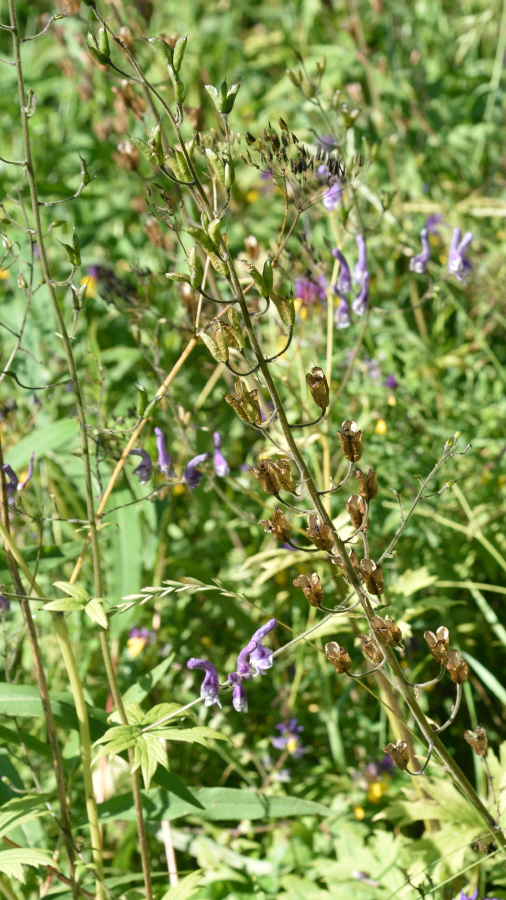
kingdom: Plantae
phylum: Tracheophyta
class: Magnoliopsida
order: Ranunculales
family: Ranunculaceae
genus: Aconitum
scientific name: Aconitum septentrionale
